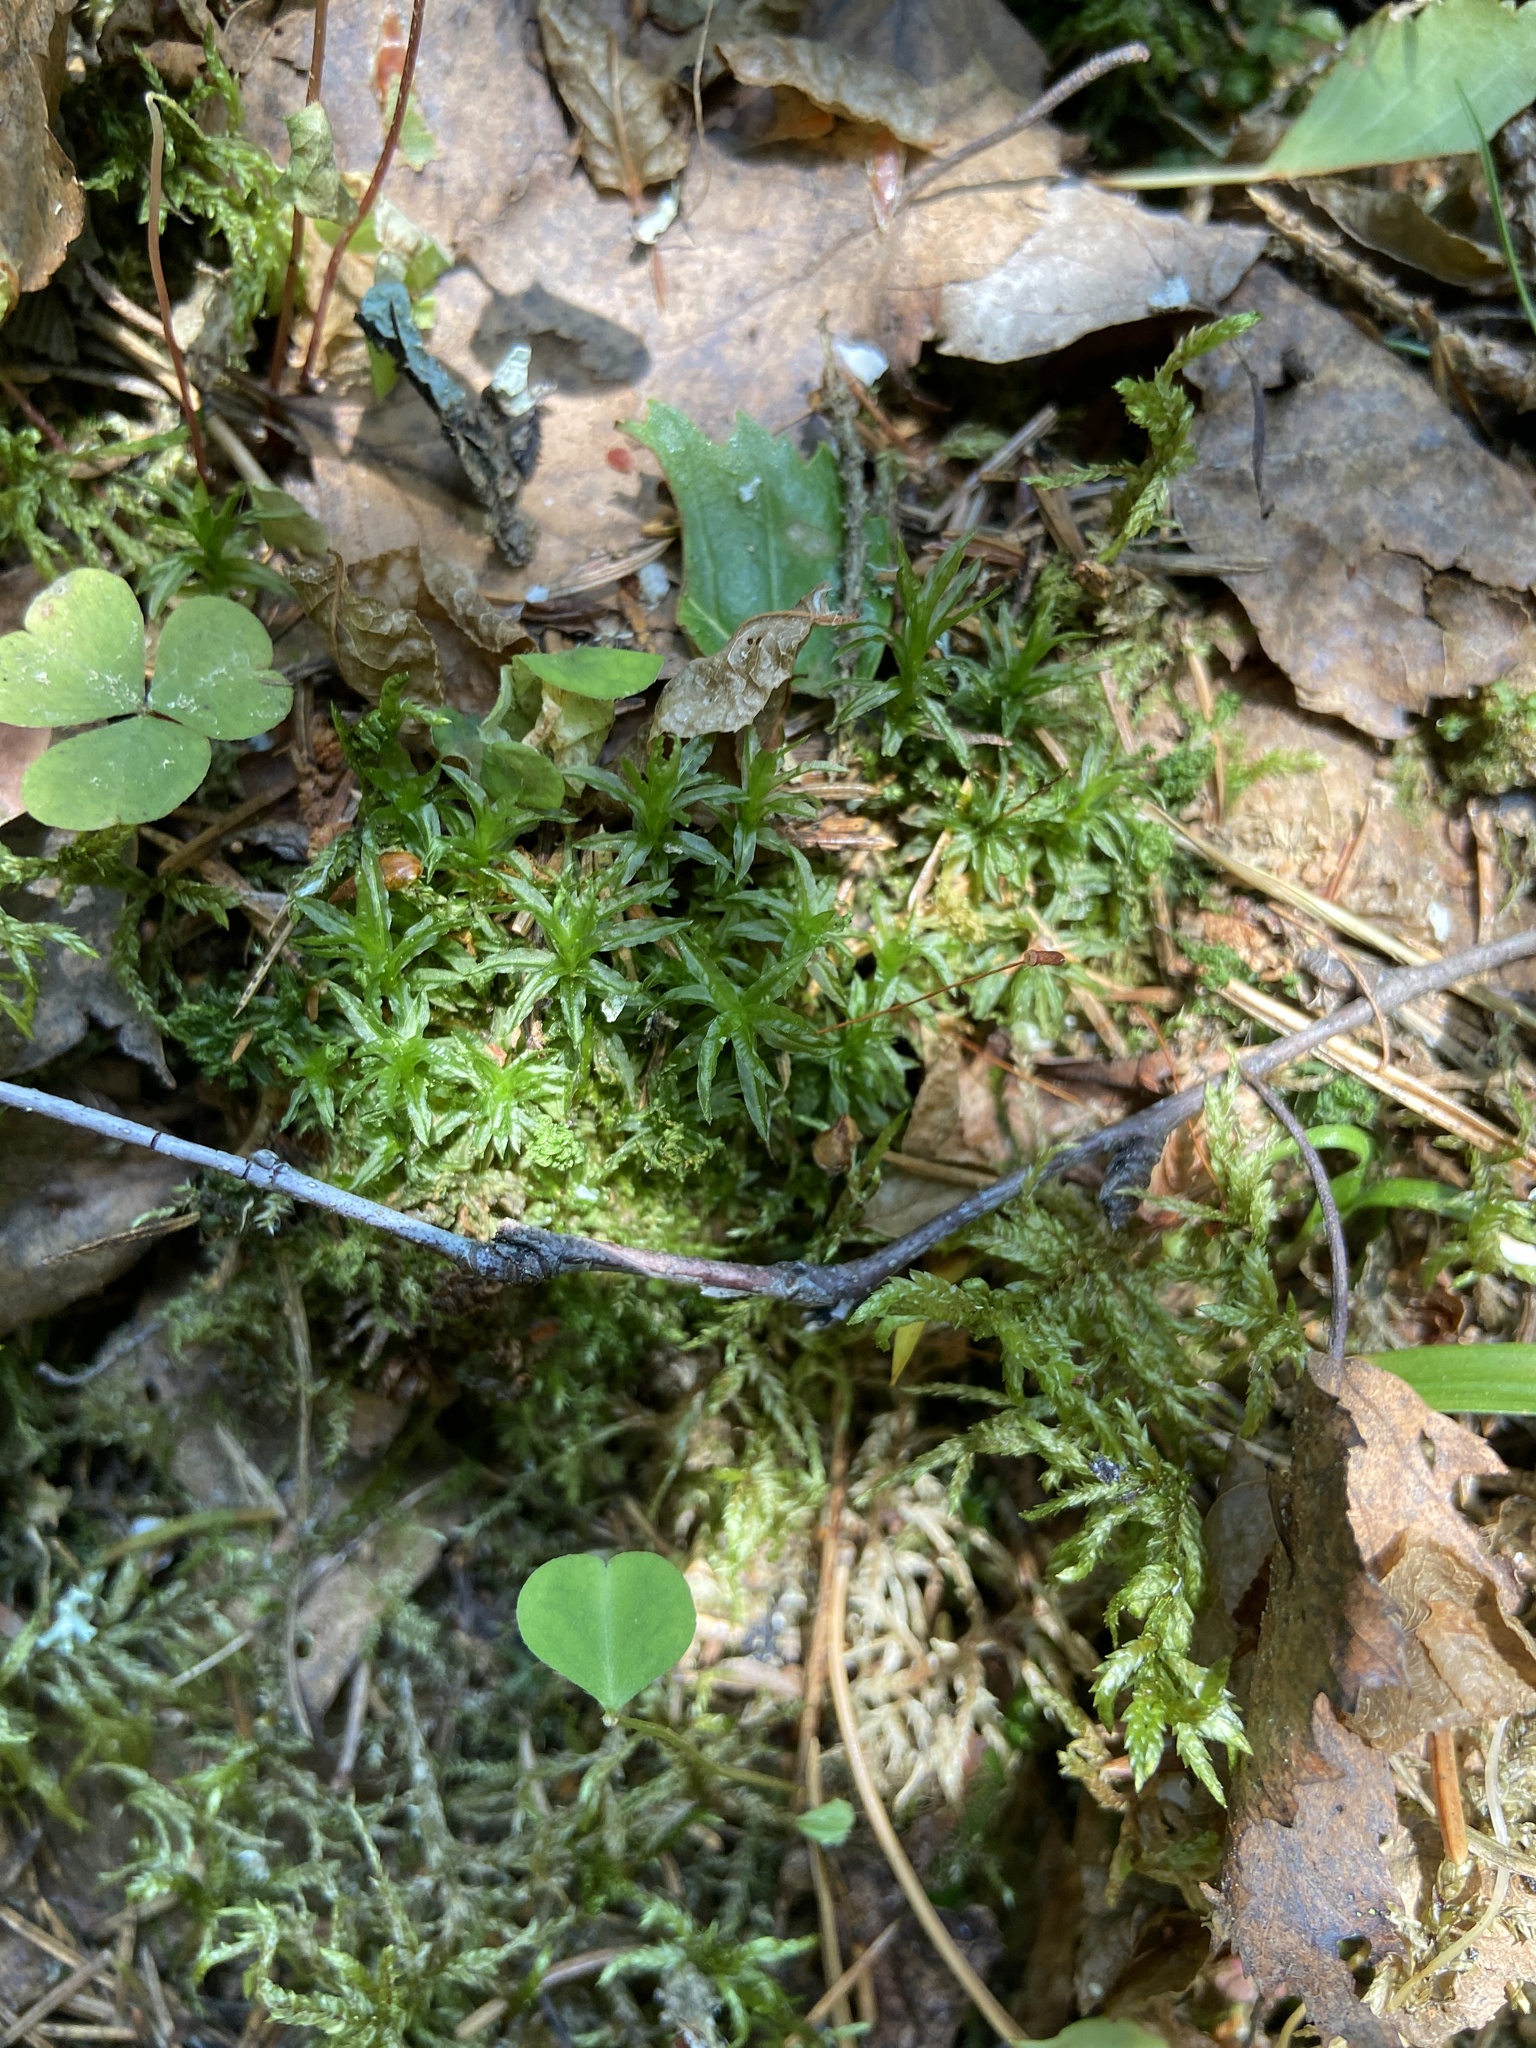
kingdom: Plantae
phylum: Bryophyta
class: Polytrichopsida
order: Polytrichales
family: Polytrichaceae
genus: Atrichum
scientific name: Atrichum undulatum
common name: Common smoothcap
